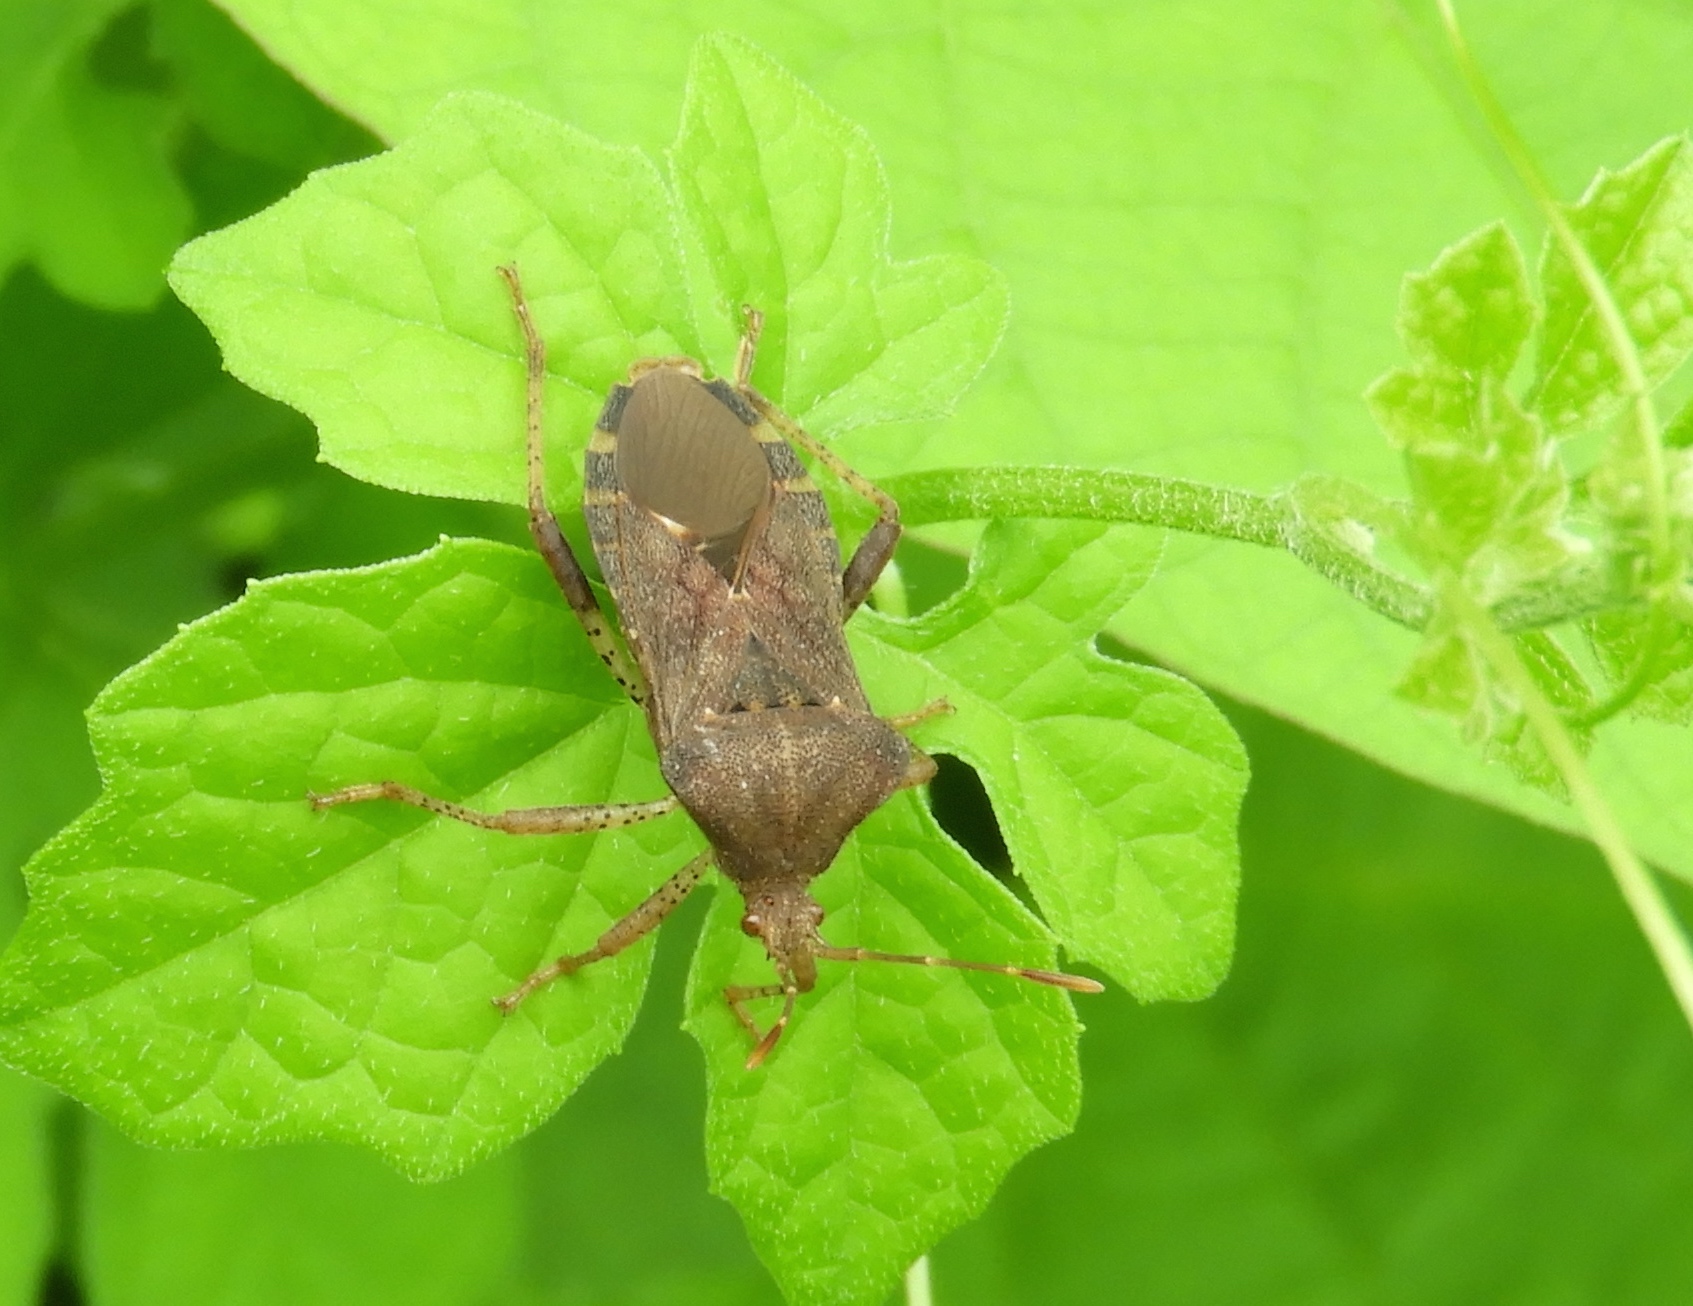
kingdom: Animalia
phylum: Arthropoda
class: Insecta
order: Hemiptera
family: Coreidae
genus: Anasa
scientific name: Anasa
